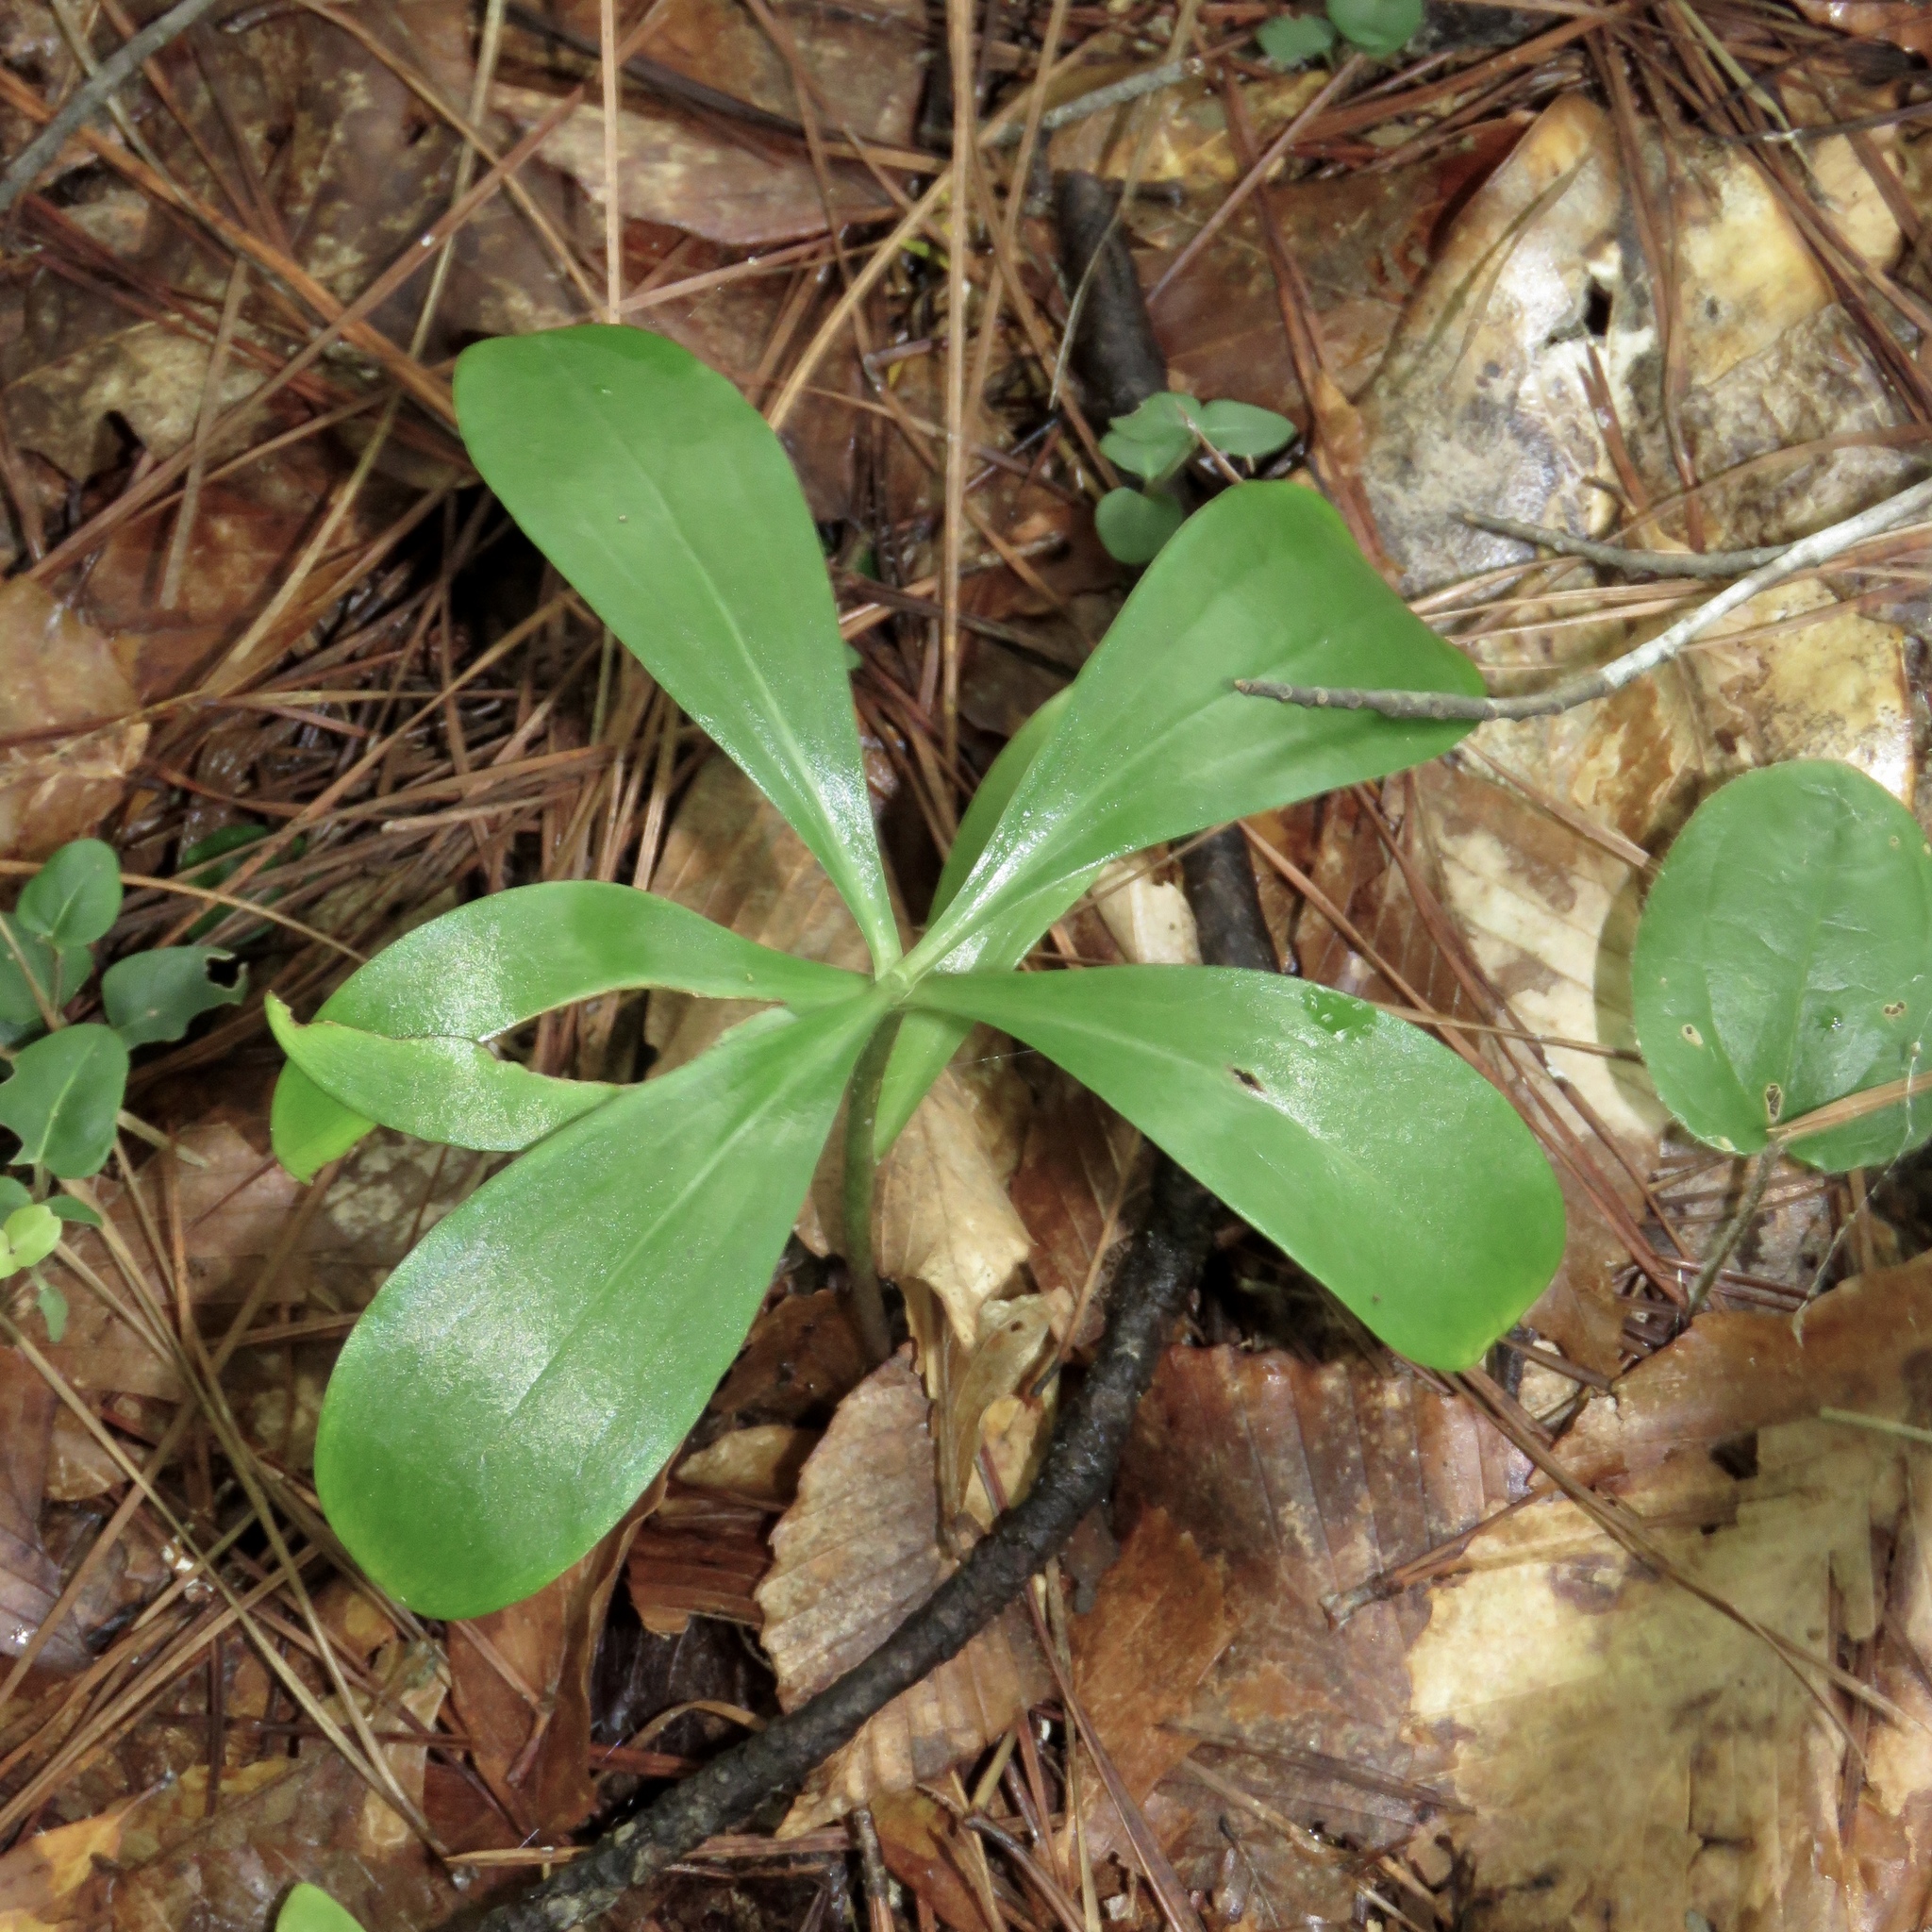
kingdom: Plantae
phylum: Tracheophyta
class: Liliopsida
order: Liliales
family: Liliaceae
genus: Lilium
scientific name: Lilium michauxii
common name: Carolina lily
